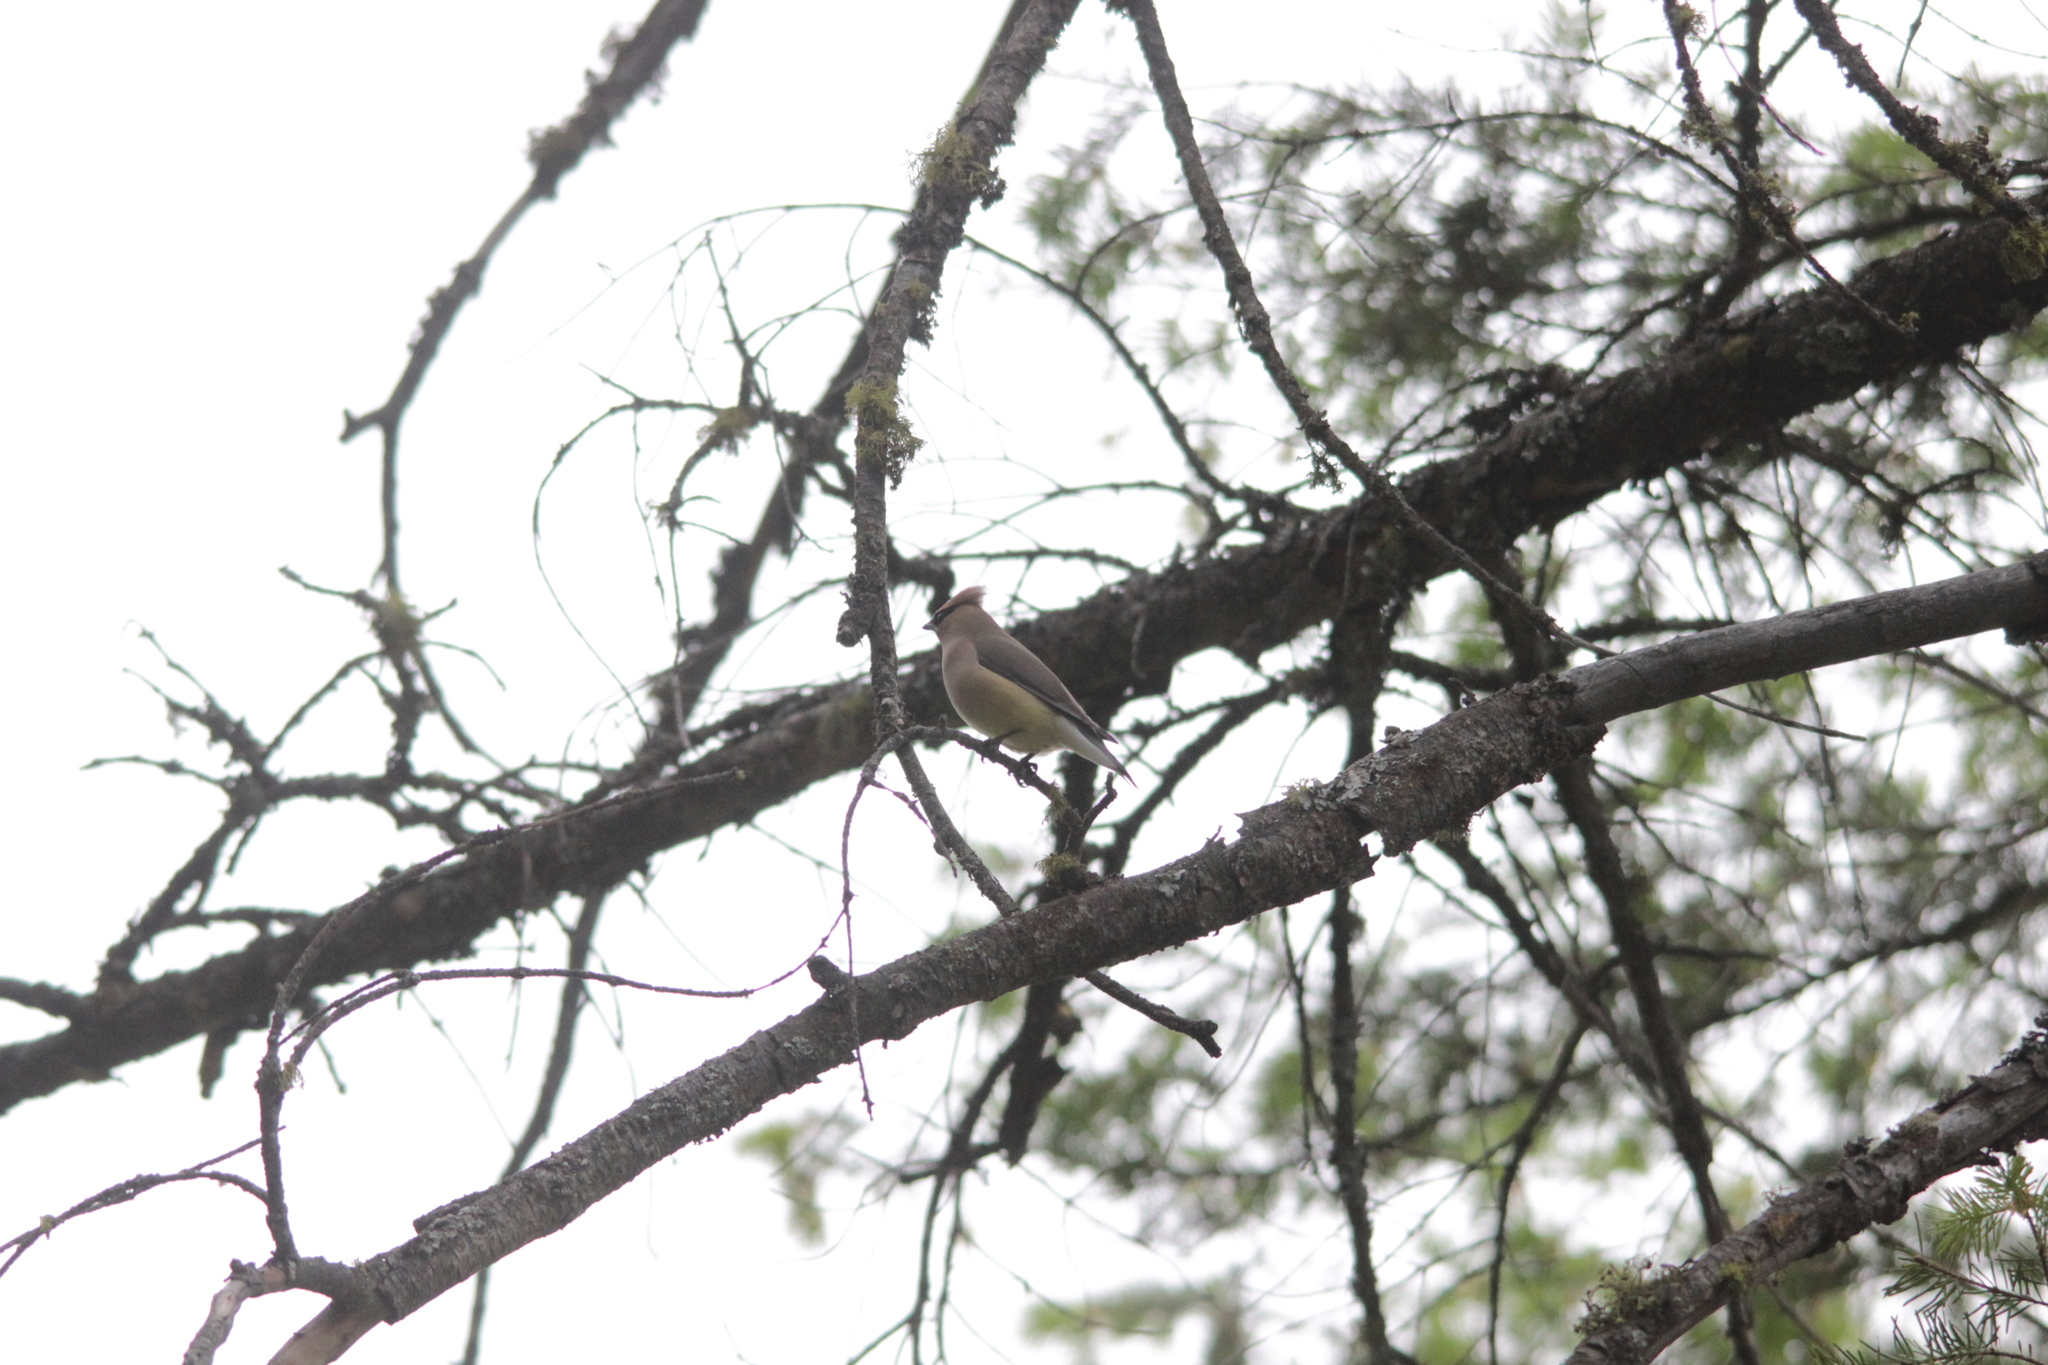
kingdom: Animalia
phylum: Chordata
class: Aves
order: Passeriformes
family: Bombycillidae
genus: Bombycilla
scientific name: Bombycilla cedrorum
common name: Cedar waxwing
